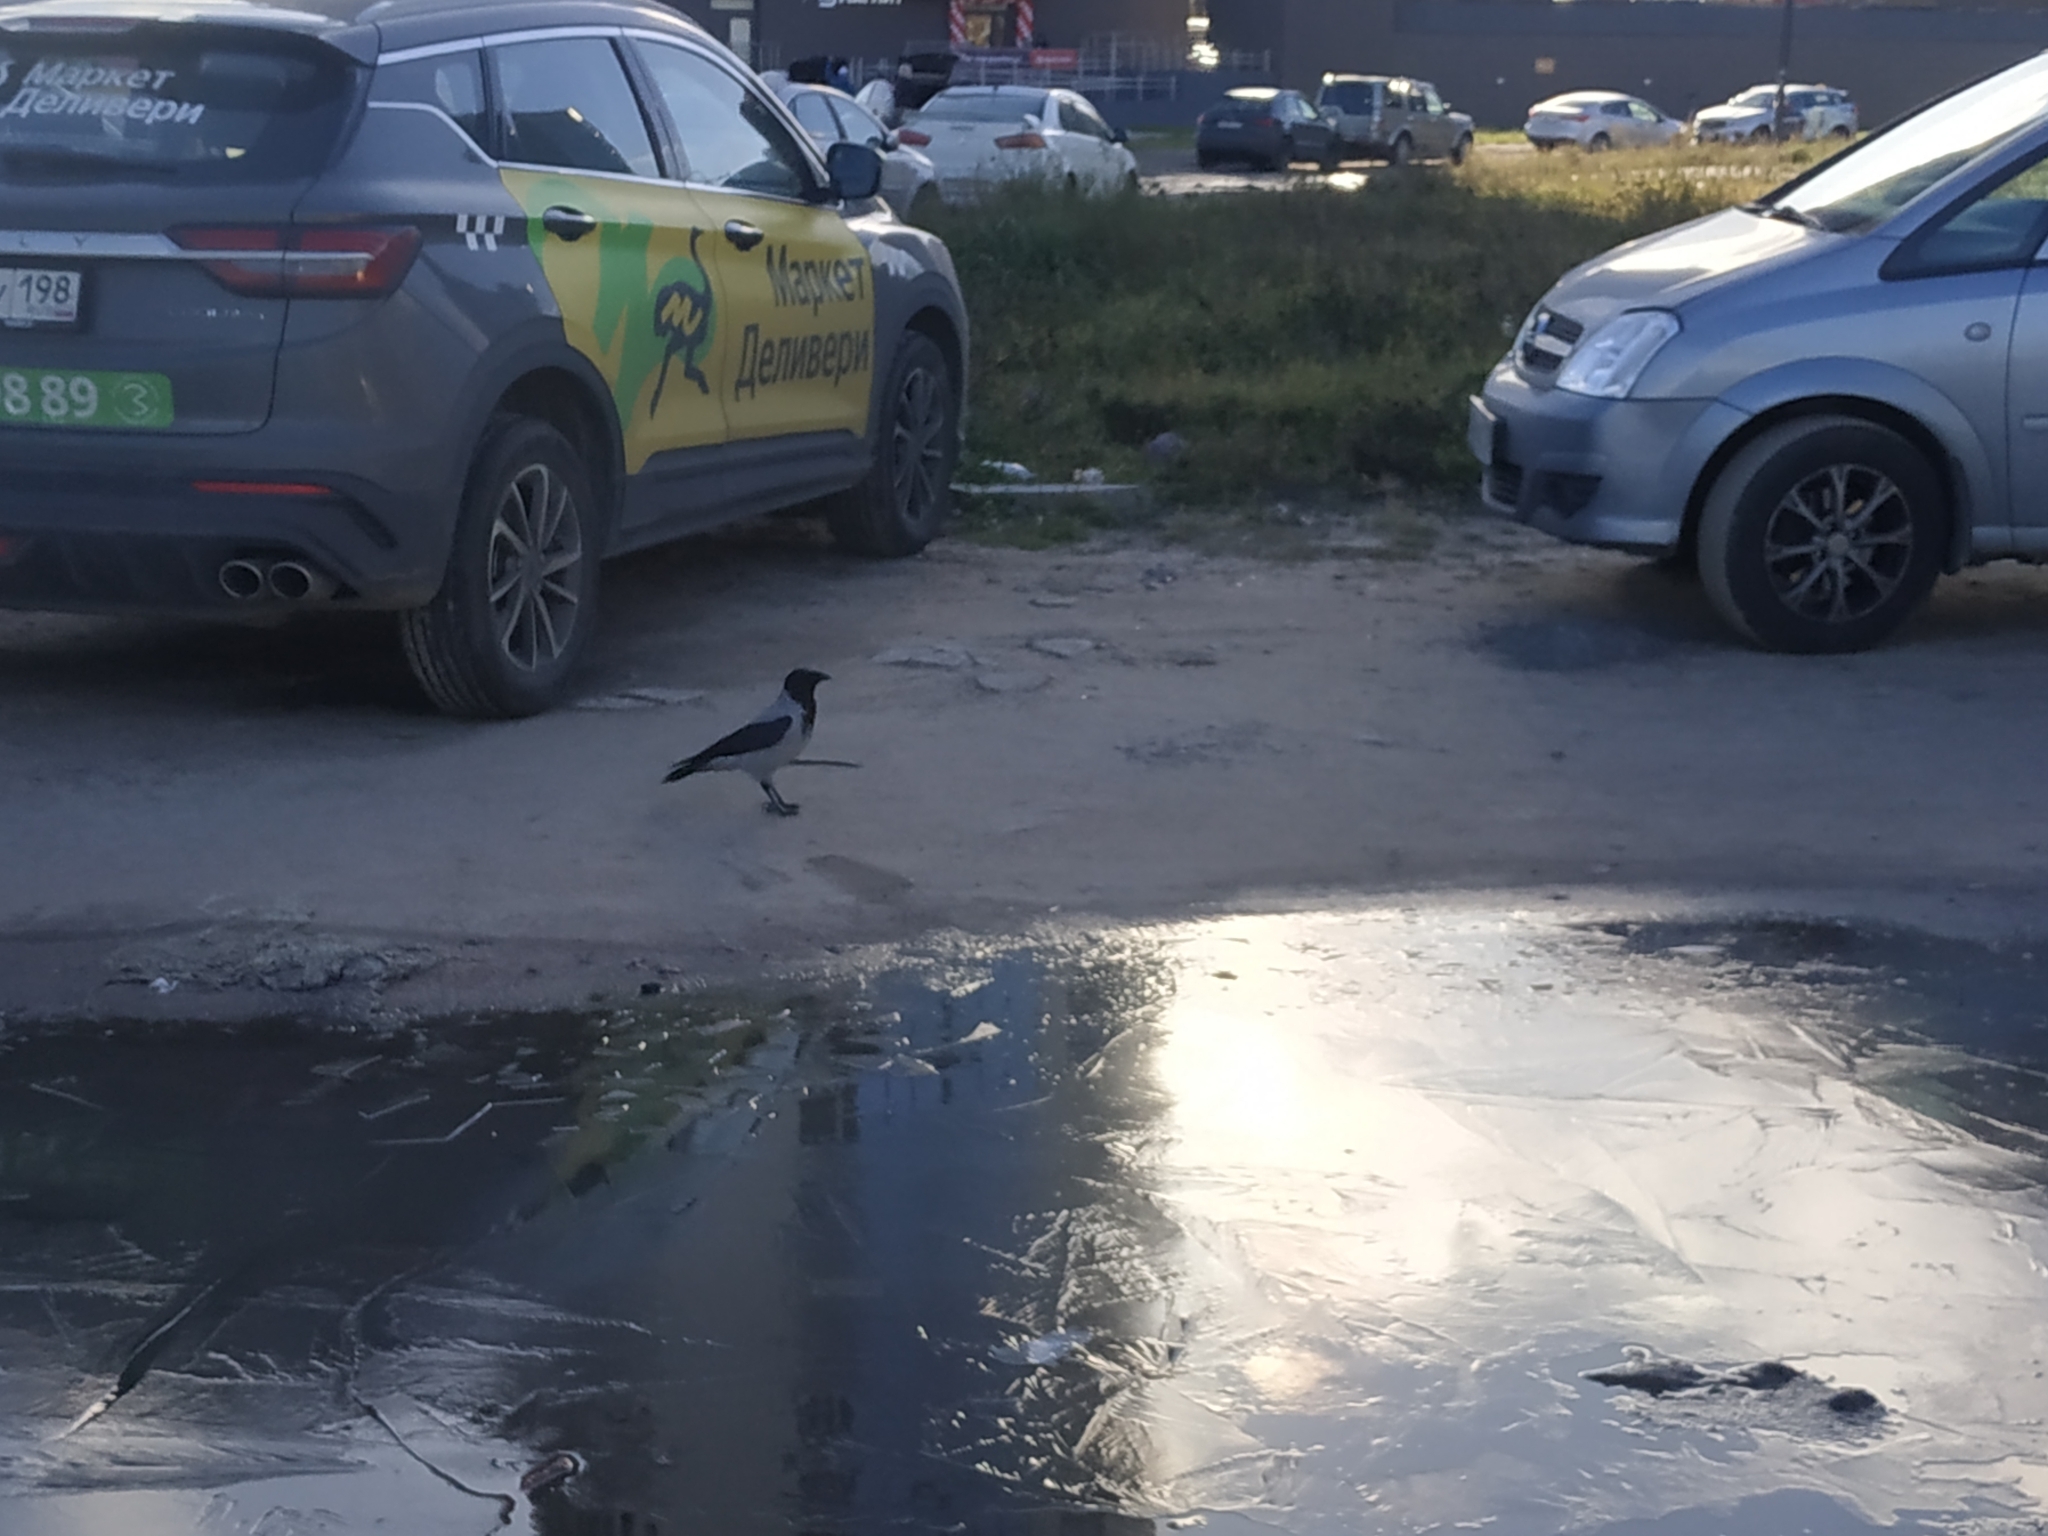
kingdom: Animalia
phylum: Chordata
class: Aves
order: Passeriformes
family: Corvidae
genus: Corvus
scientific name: Corvus cornix
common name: Hooded crow
